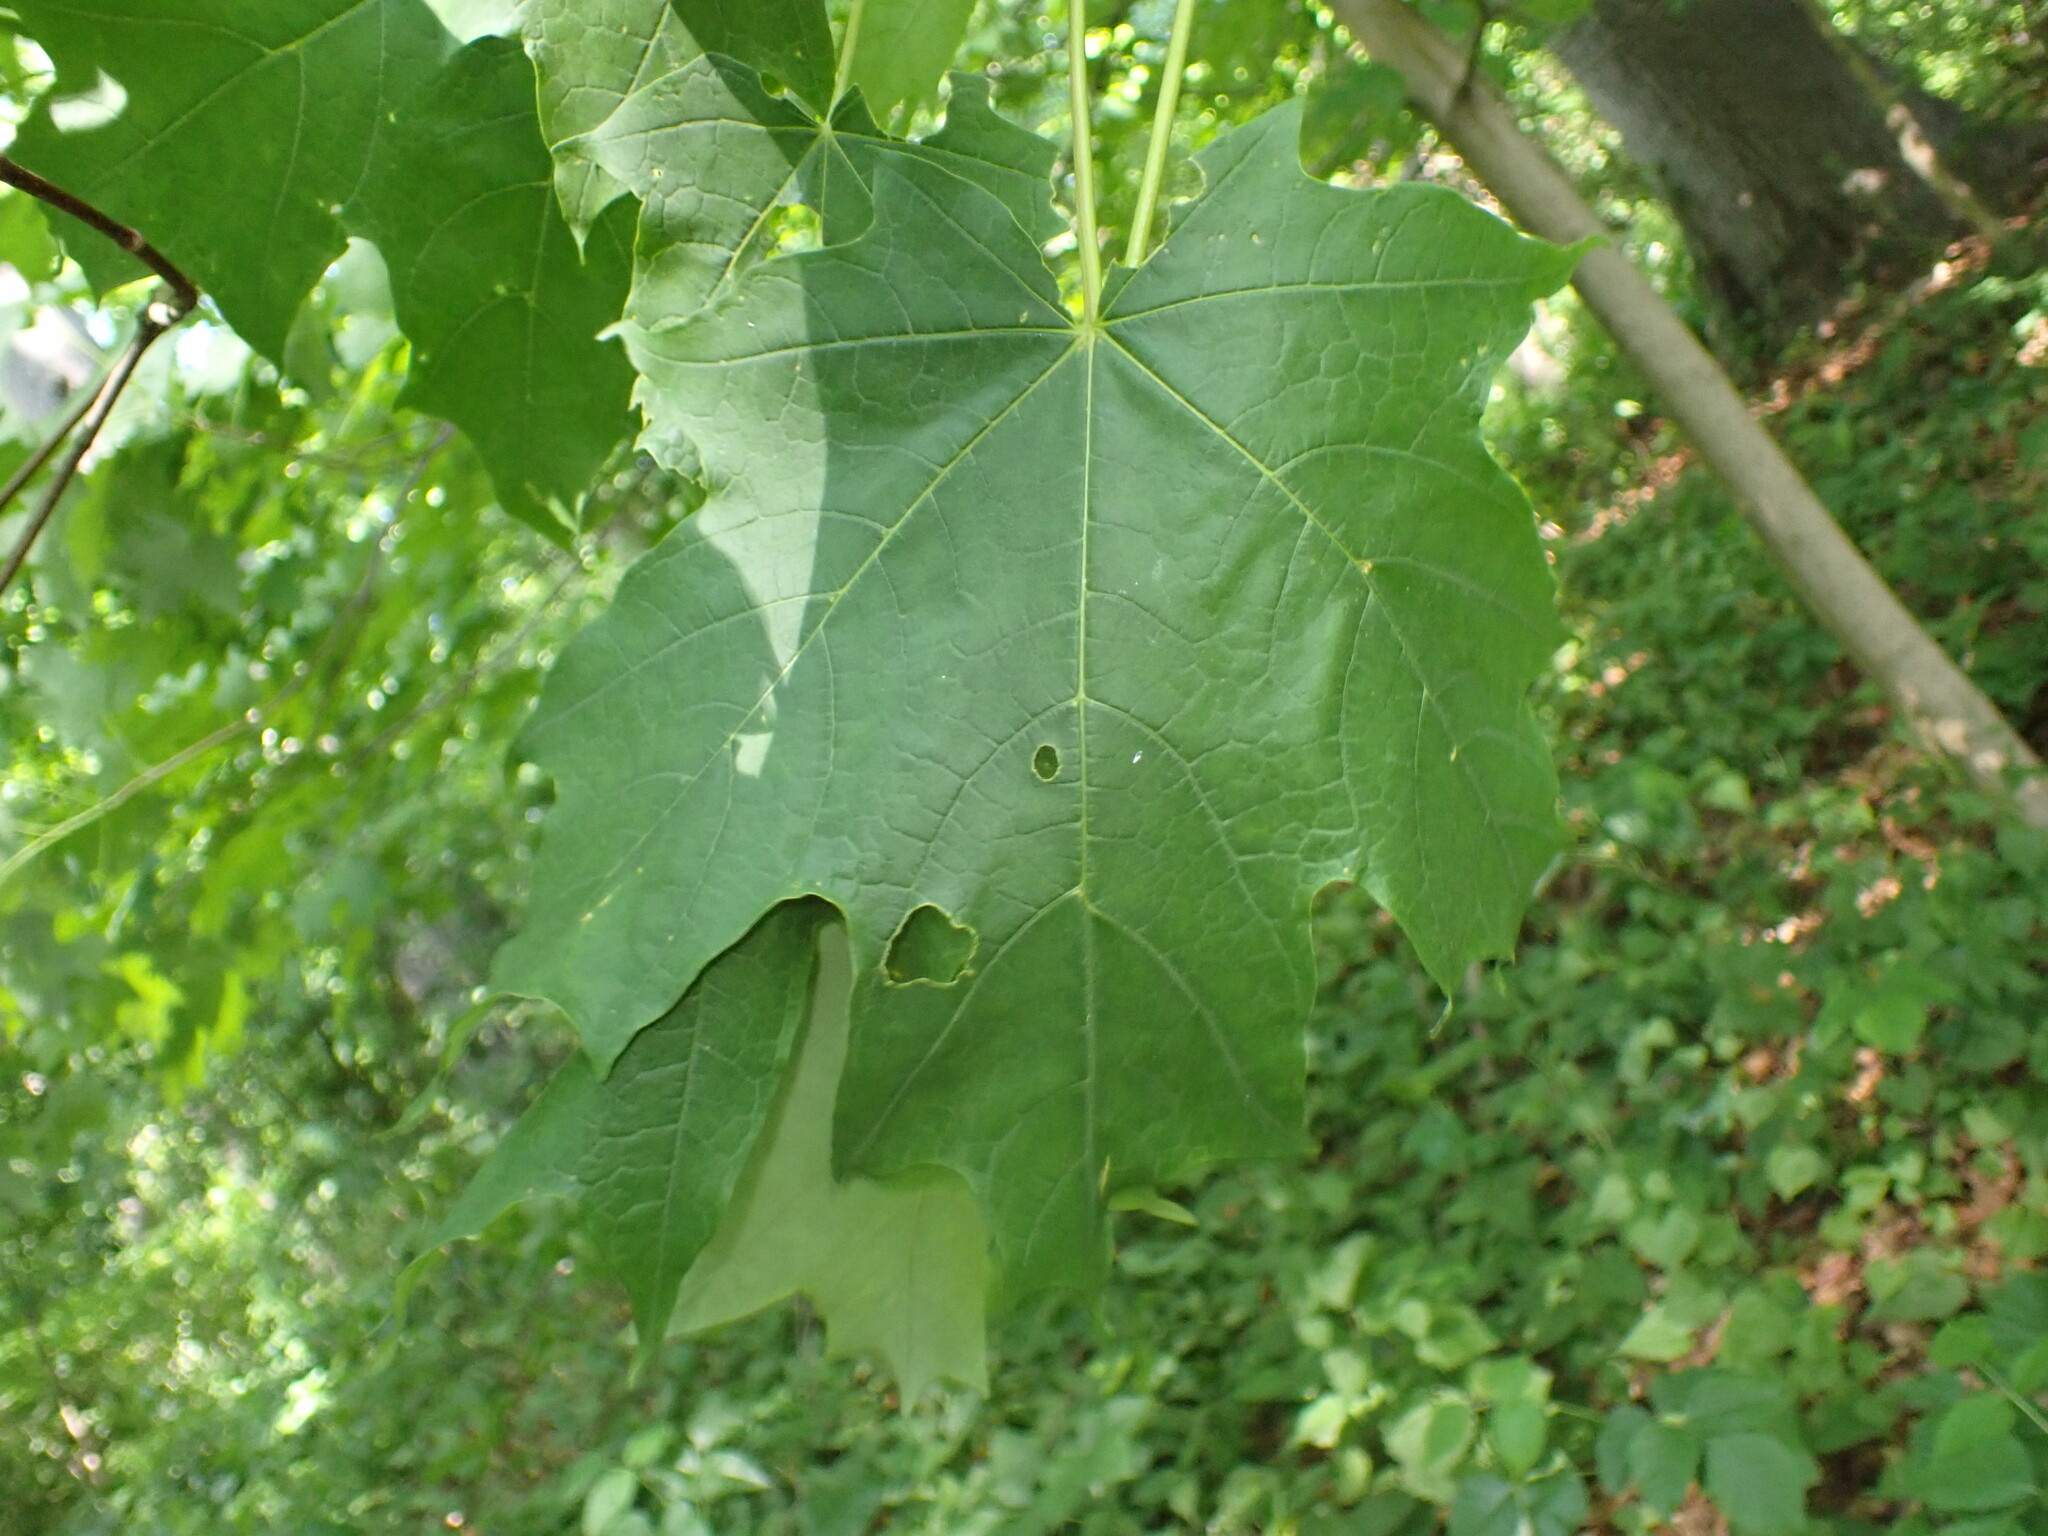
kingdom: Plantae
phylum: Tracheophyta
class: Magnoliopsida
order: Sapindales
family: Sapindaceae
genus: Acer
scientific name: Acer saccharum
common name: Sugar maple
